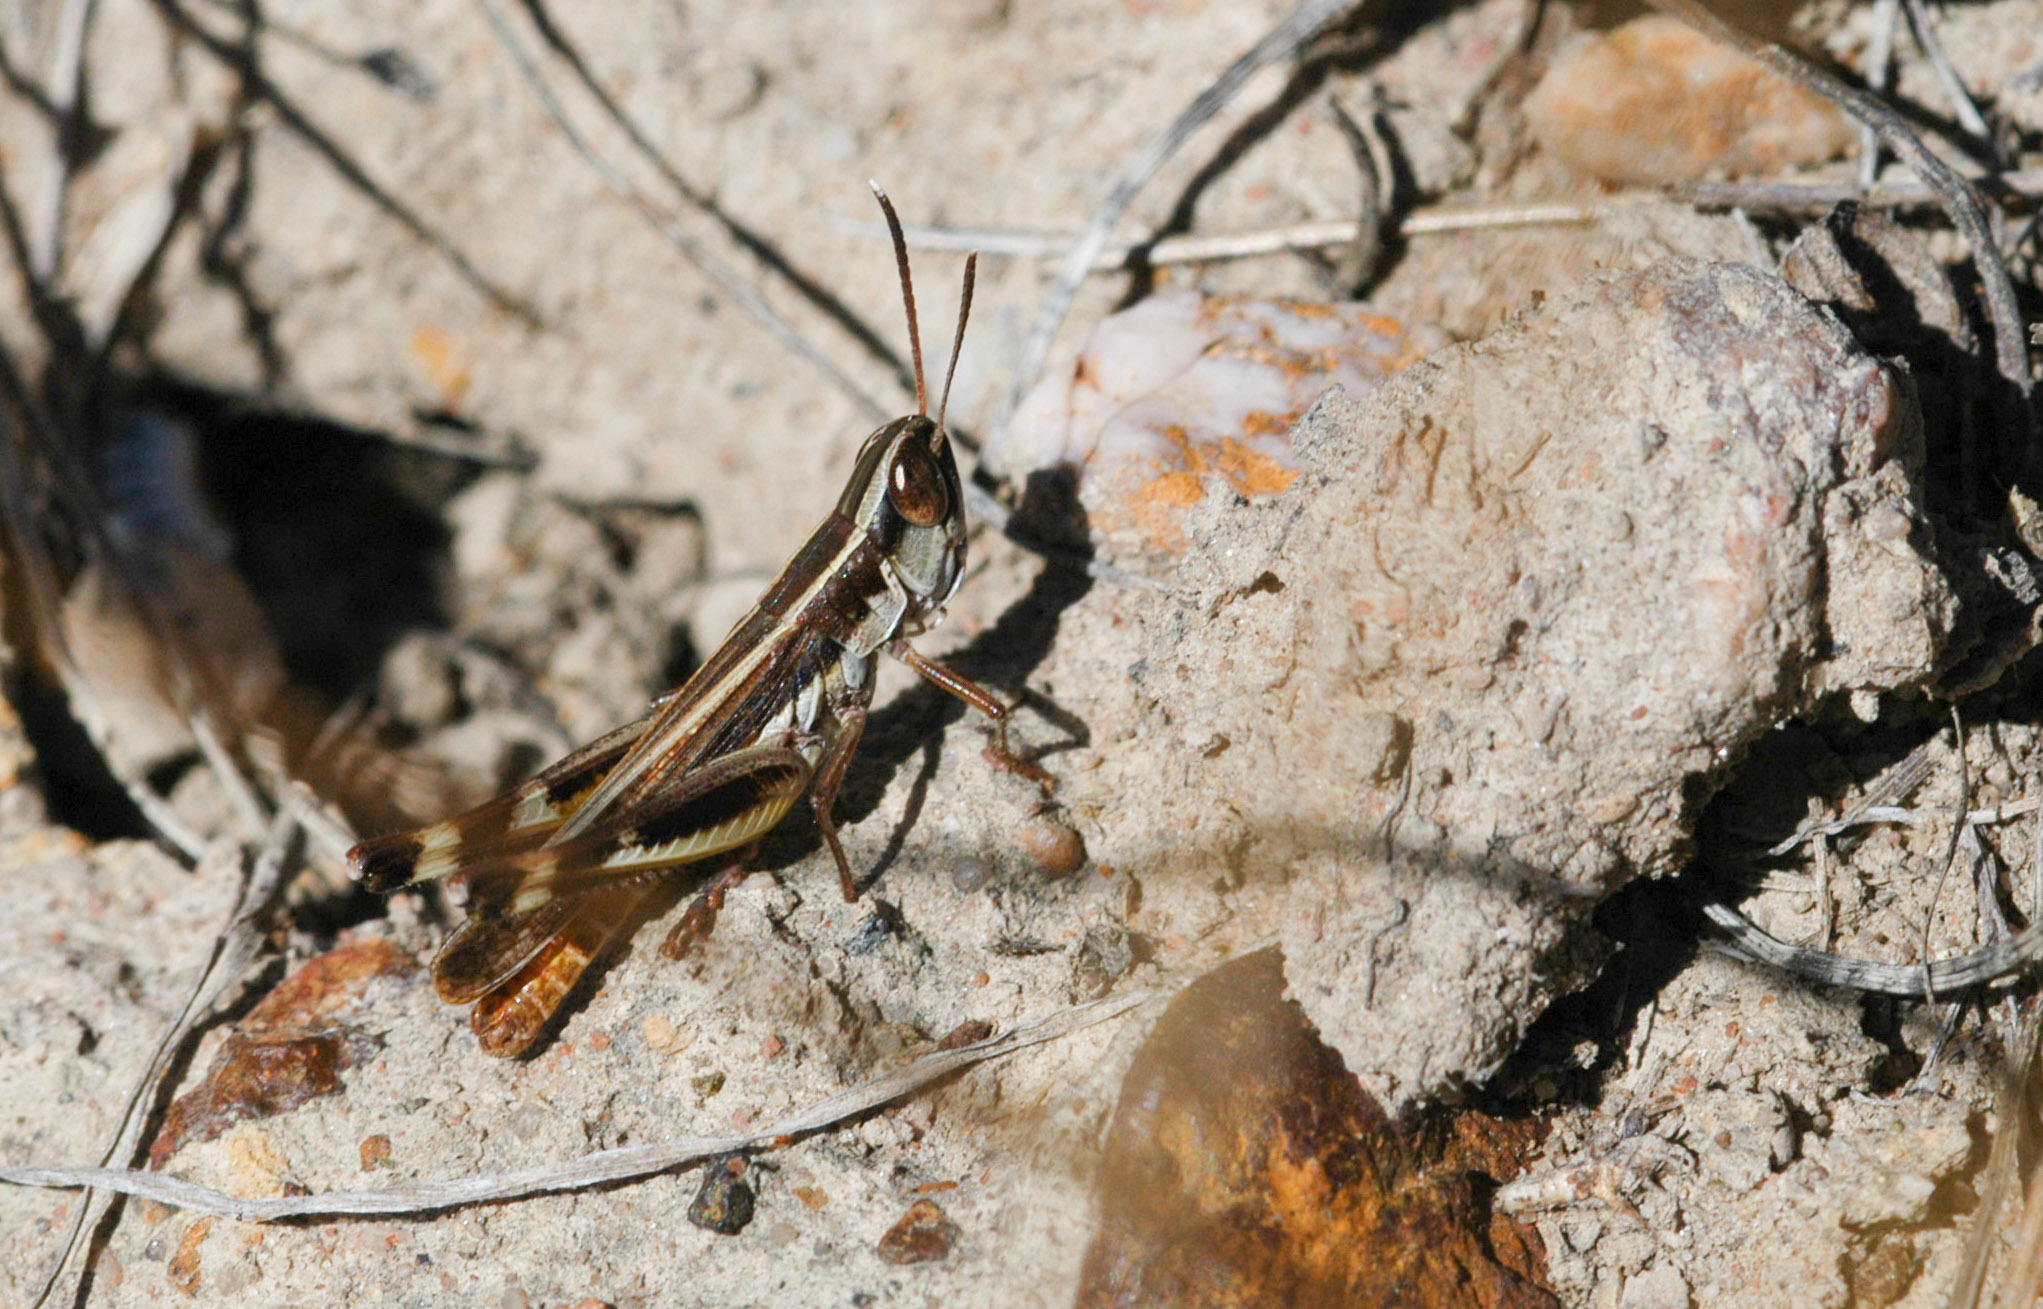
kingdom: Animalia
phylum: Arthropoda
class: Insecta
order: Orthoptera
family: Acrididae
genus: Macrotona
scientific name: Macrotona securiformis
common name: Inland macrotona
